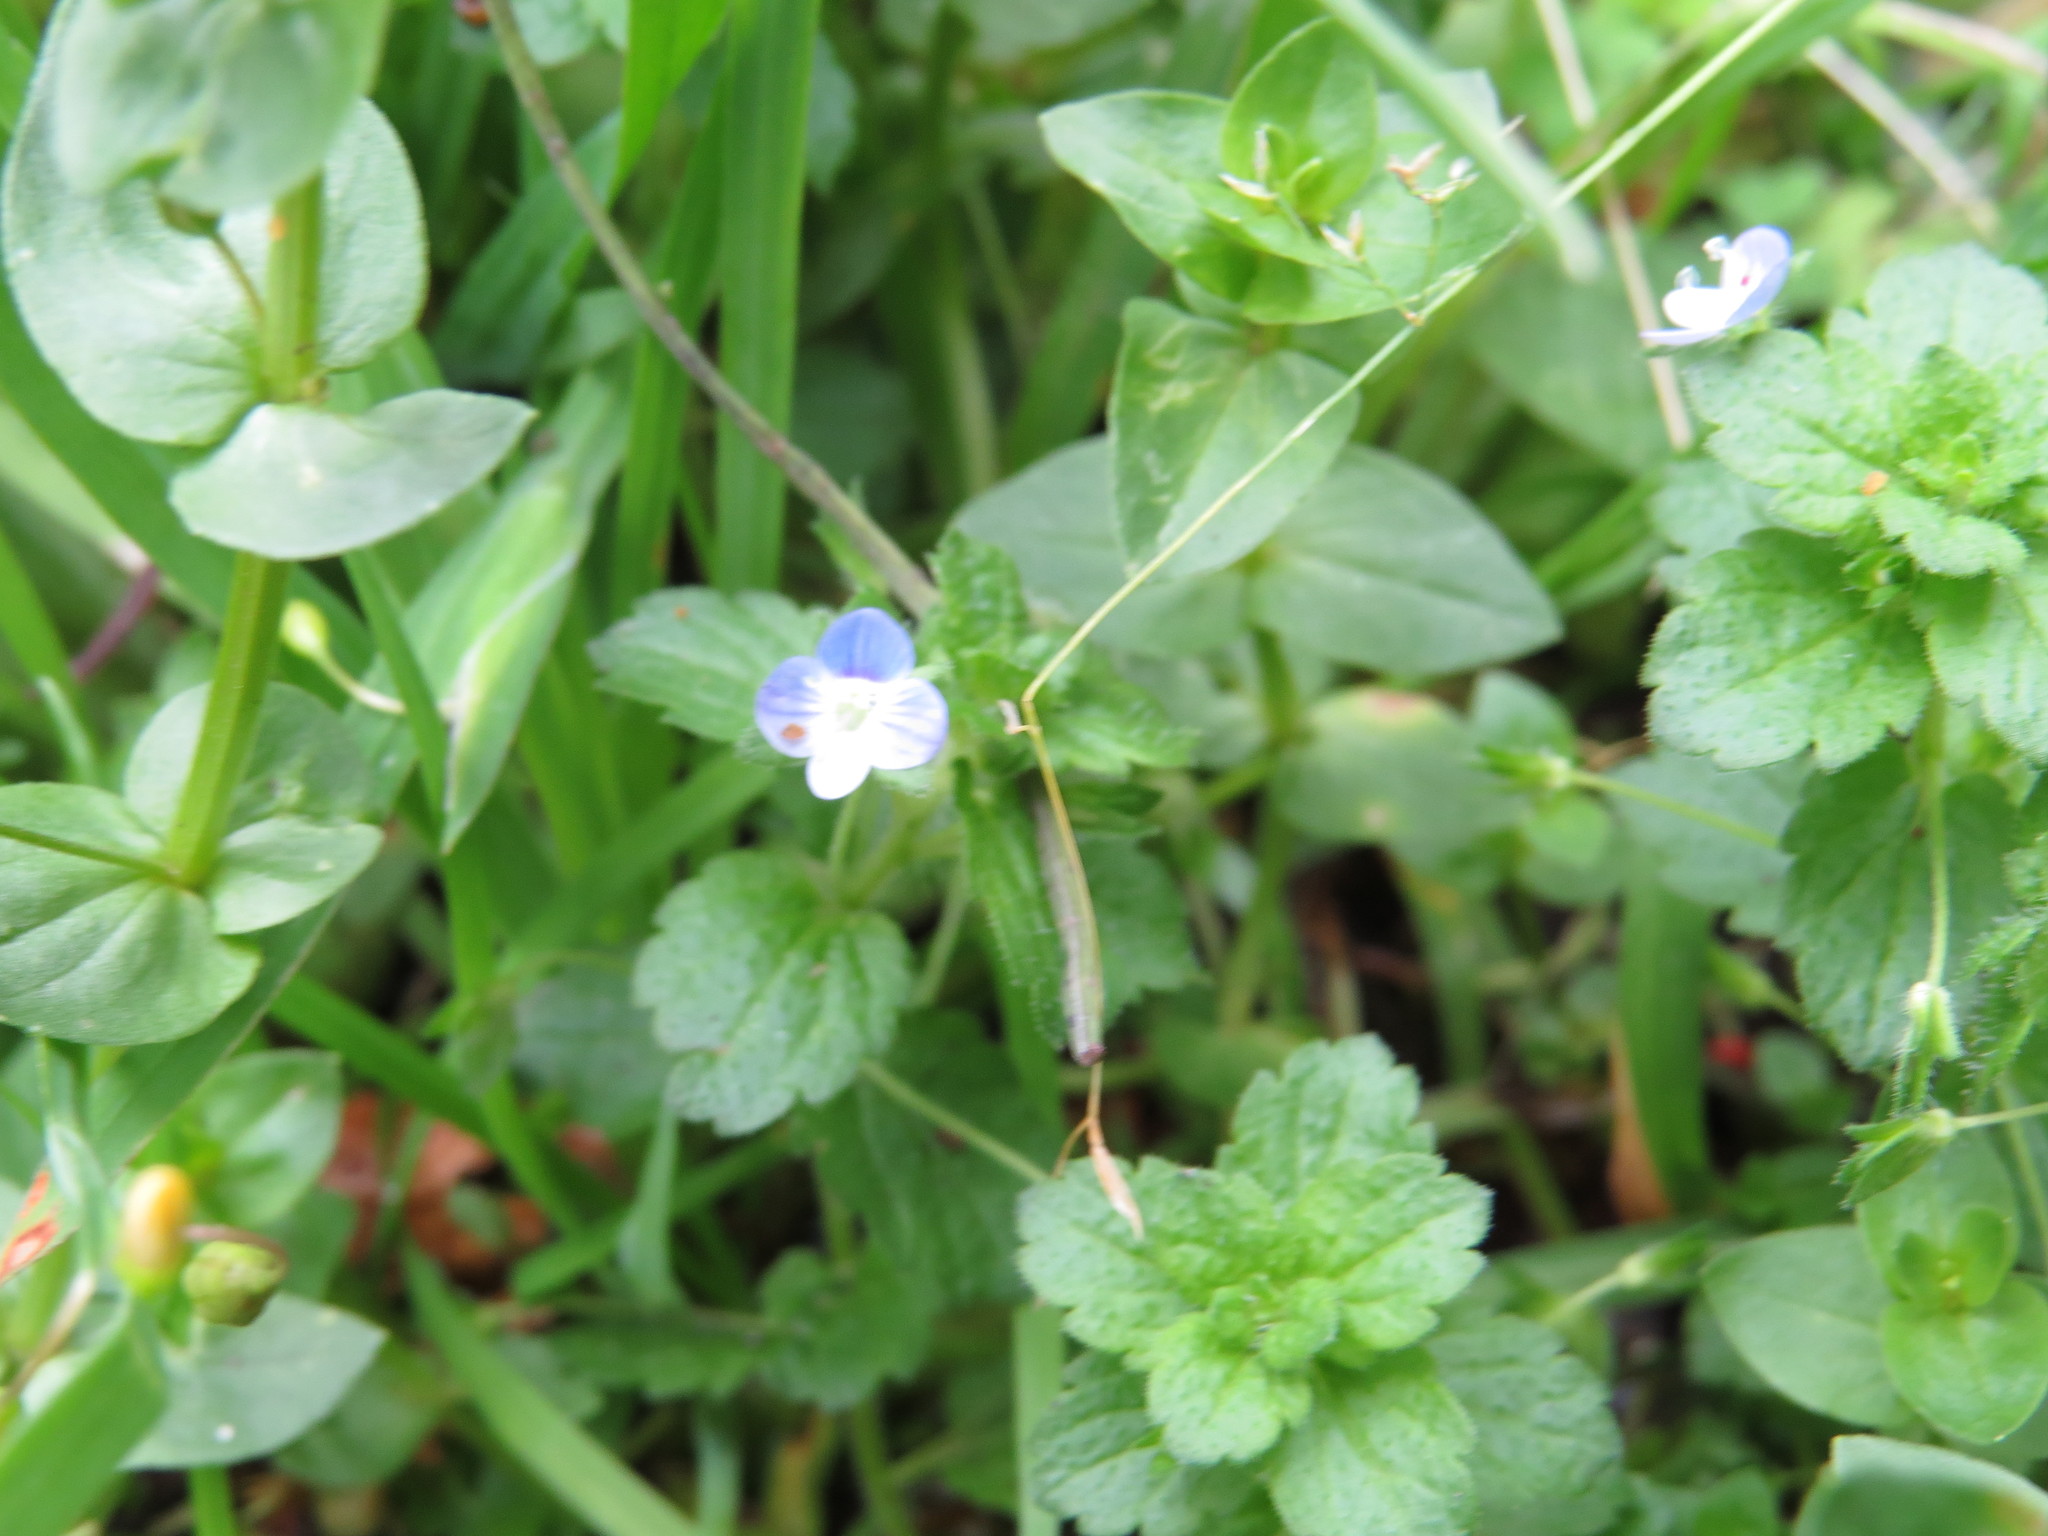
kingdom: Plantae
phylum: Tracheophyta
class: Magnoliopsida
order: Lamiales
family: Plantaginaceae
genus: Veronica
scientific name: Veronica persica
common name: Common field-speedwell
